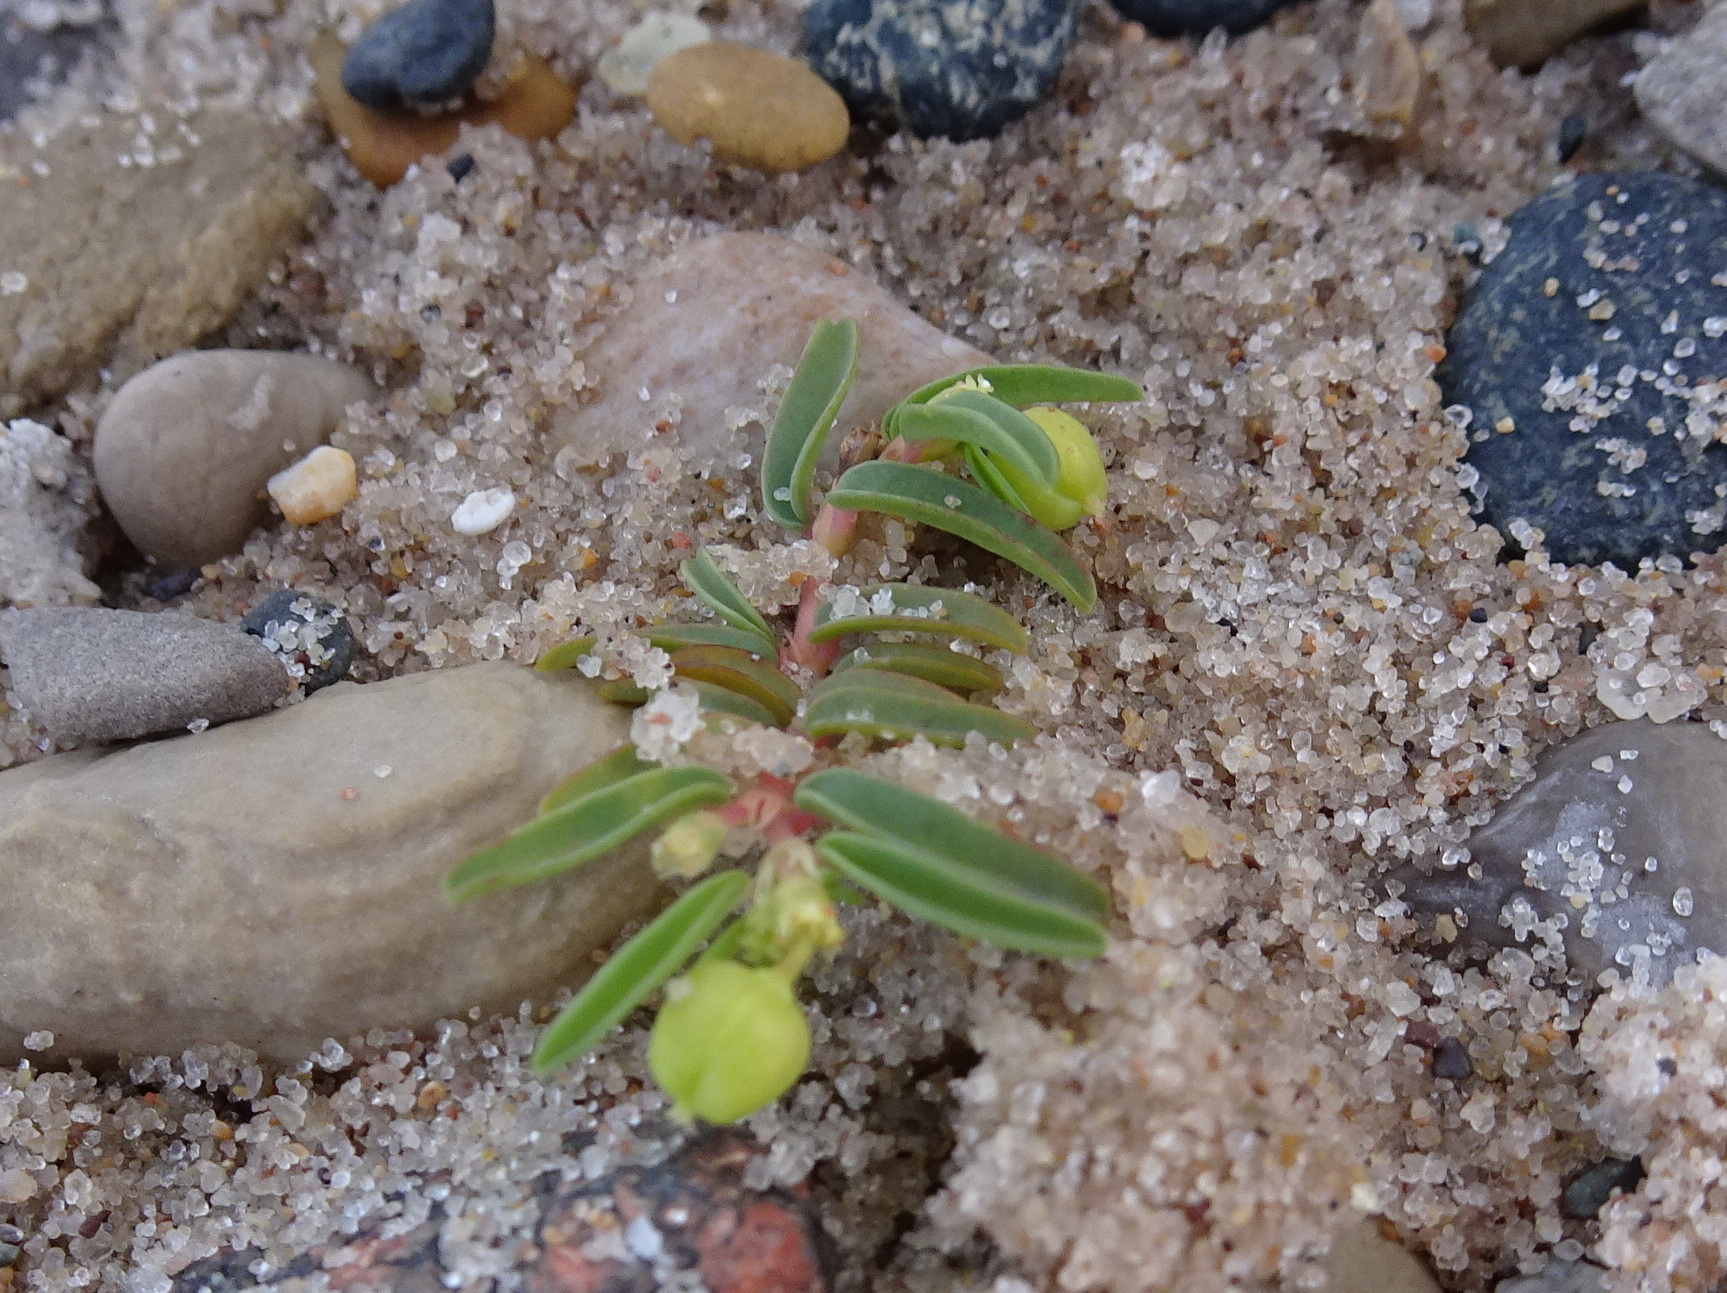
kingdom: Plantae
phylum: Tracheophyta
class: Magnoliopsida
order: Malpighiales
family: Euphorbiaceae
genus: Euphorbia
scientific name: Euphorbia polygonifolia
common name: Knotweed spurge
